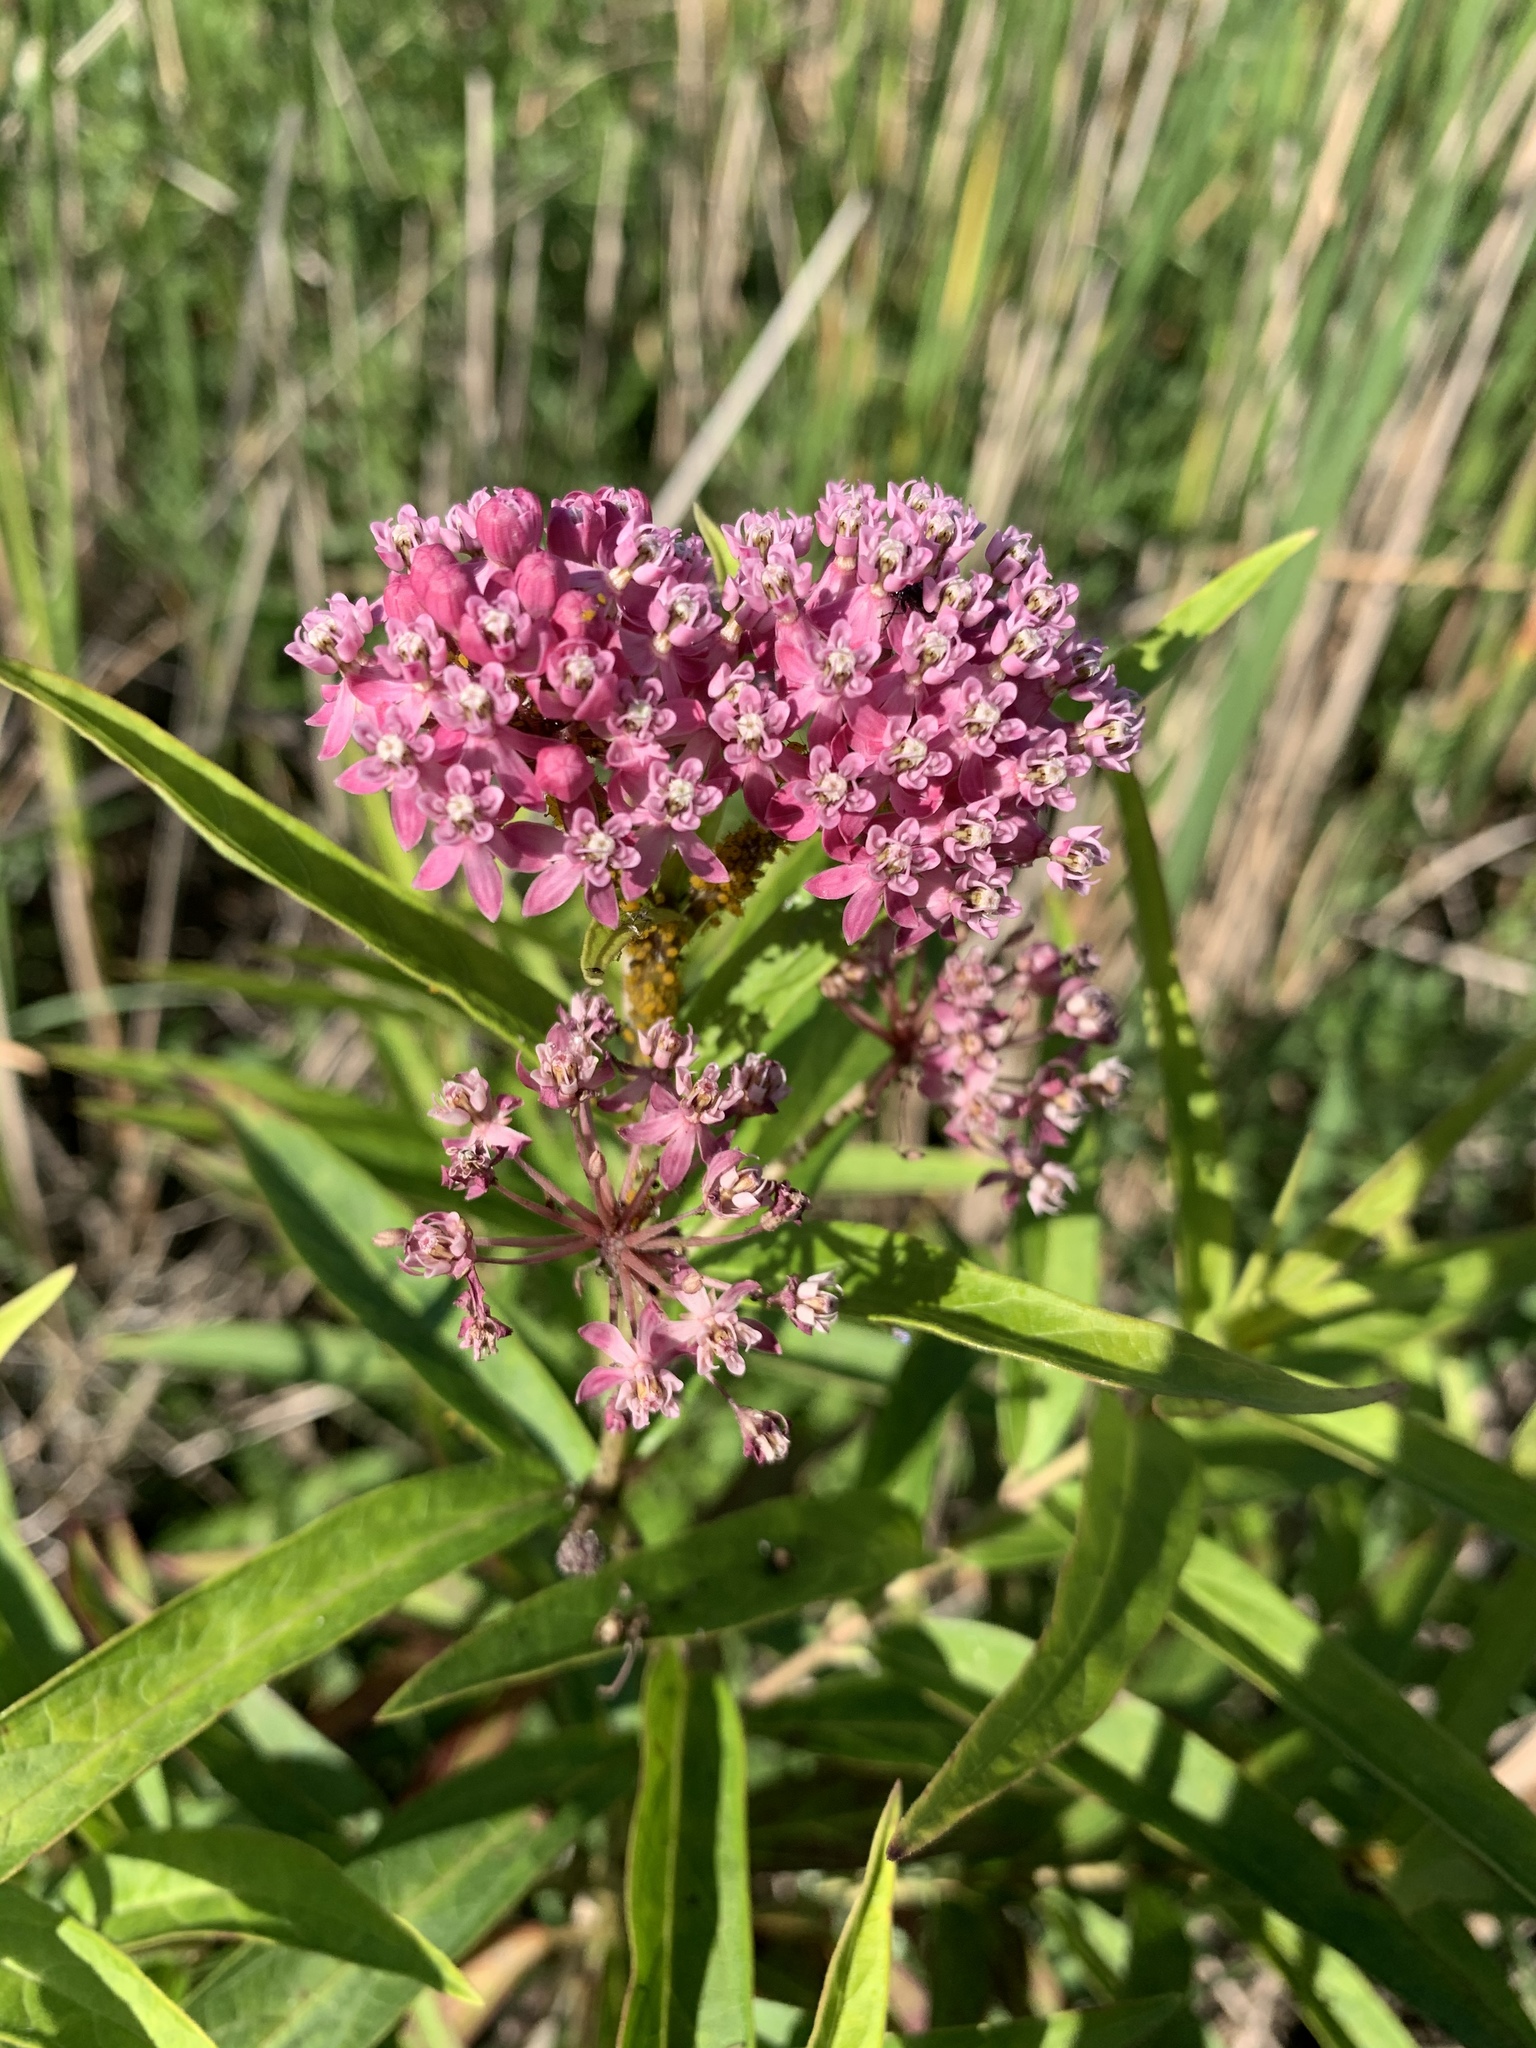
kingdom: Plantae
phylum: Tracheophyta
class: Magnoliopsida
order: Gentianales
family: Apocynaceae
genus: Asclepias
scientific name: Asclepias incarnata
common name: Swamp milkweed
